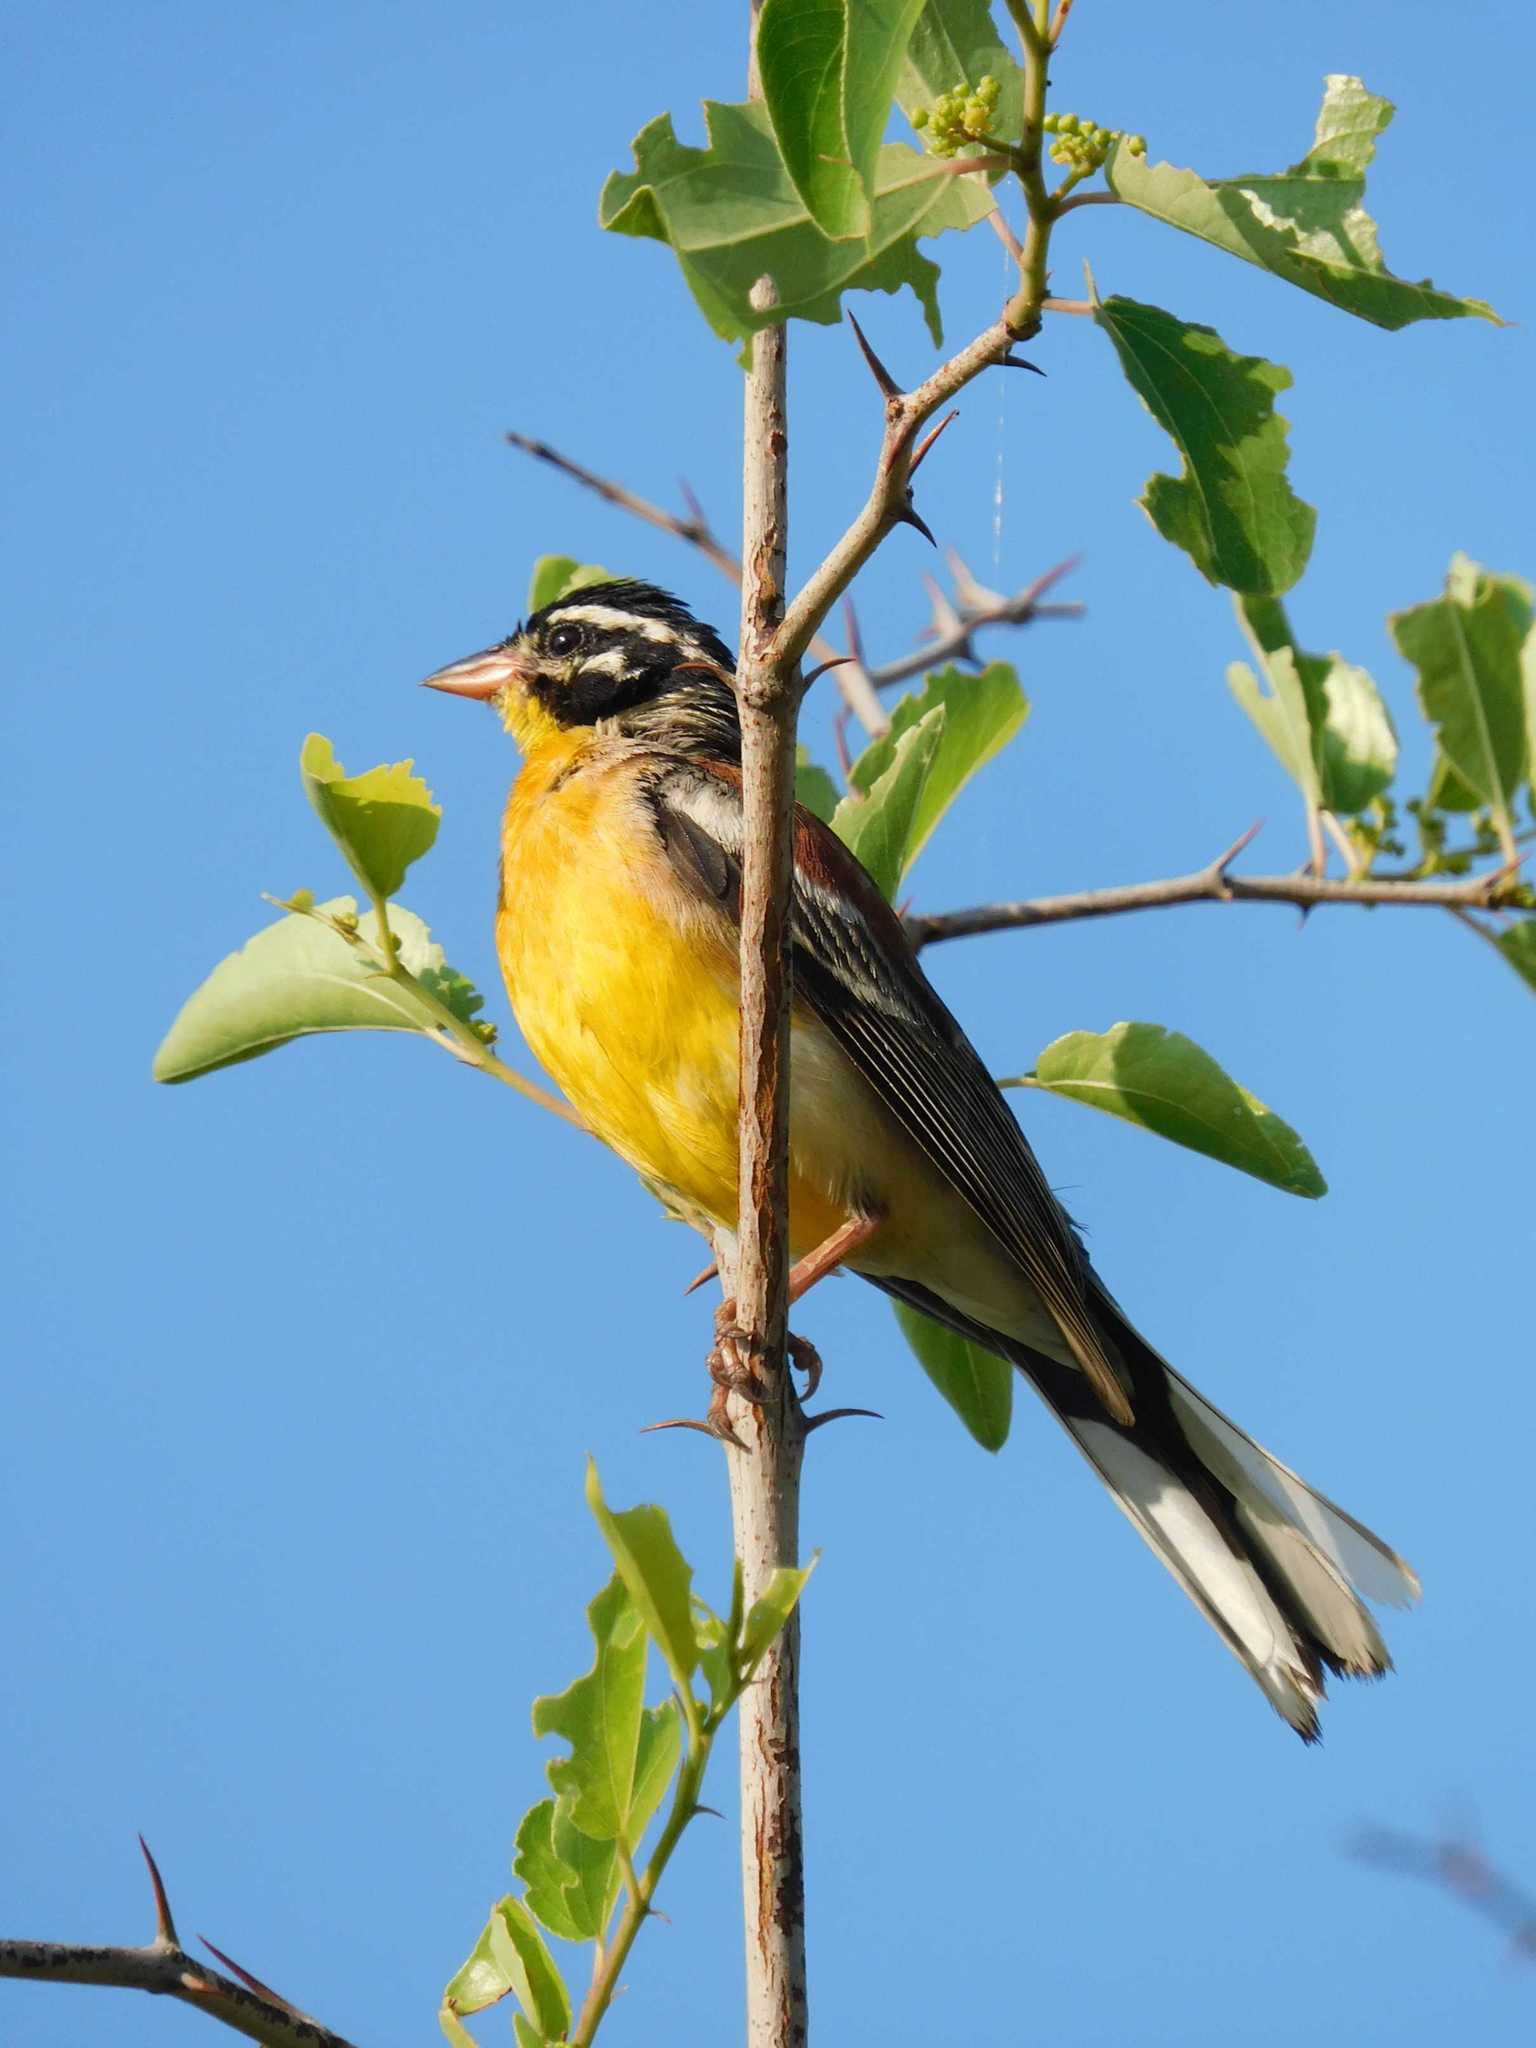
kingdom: Animalia
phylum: Chordata
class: Aves
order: Passeriformes
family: Emberizidae
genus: Emberiza
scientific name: Emberiza flaviventris
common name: Golden-breasted bunting
